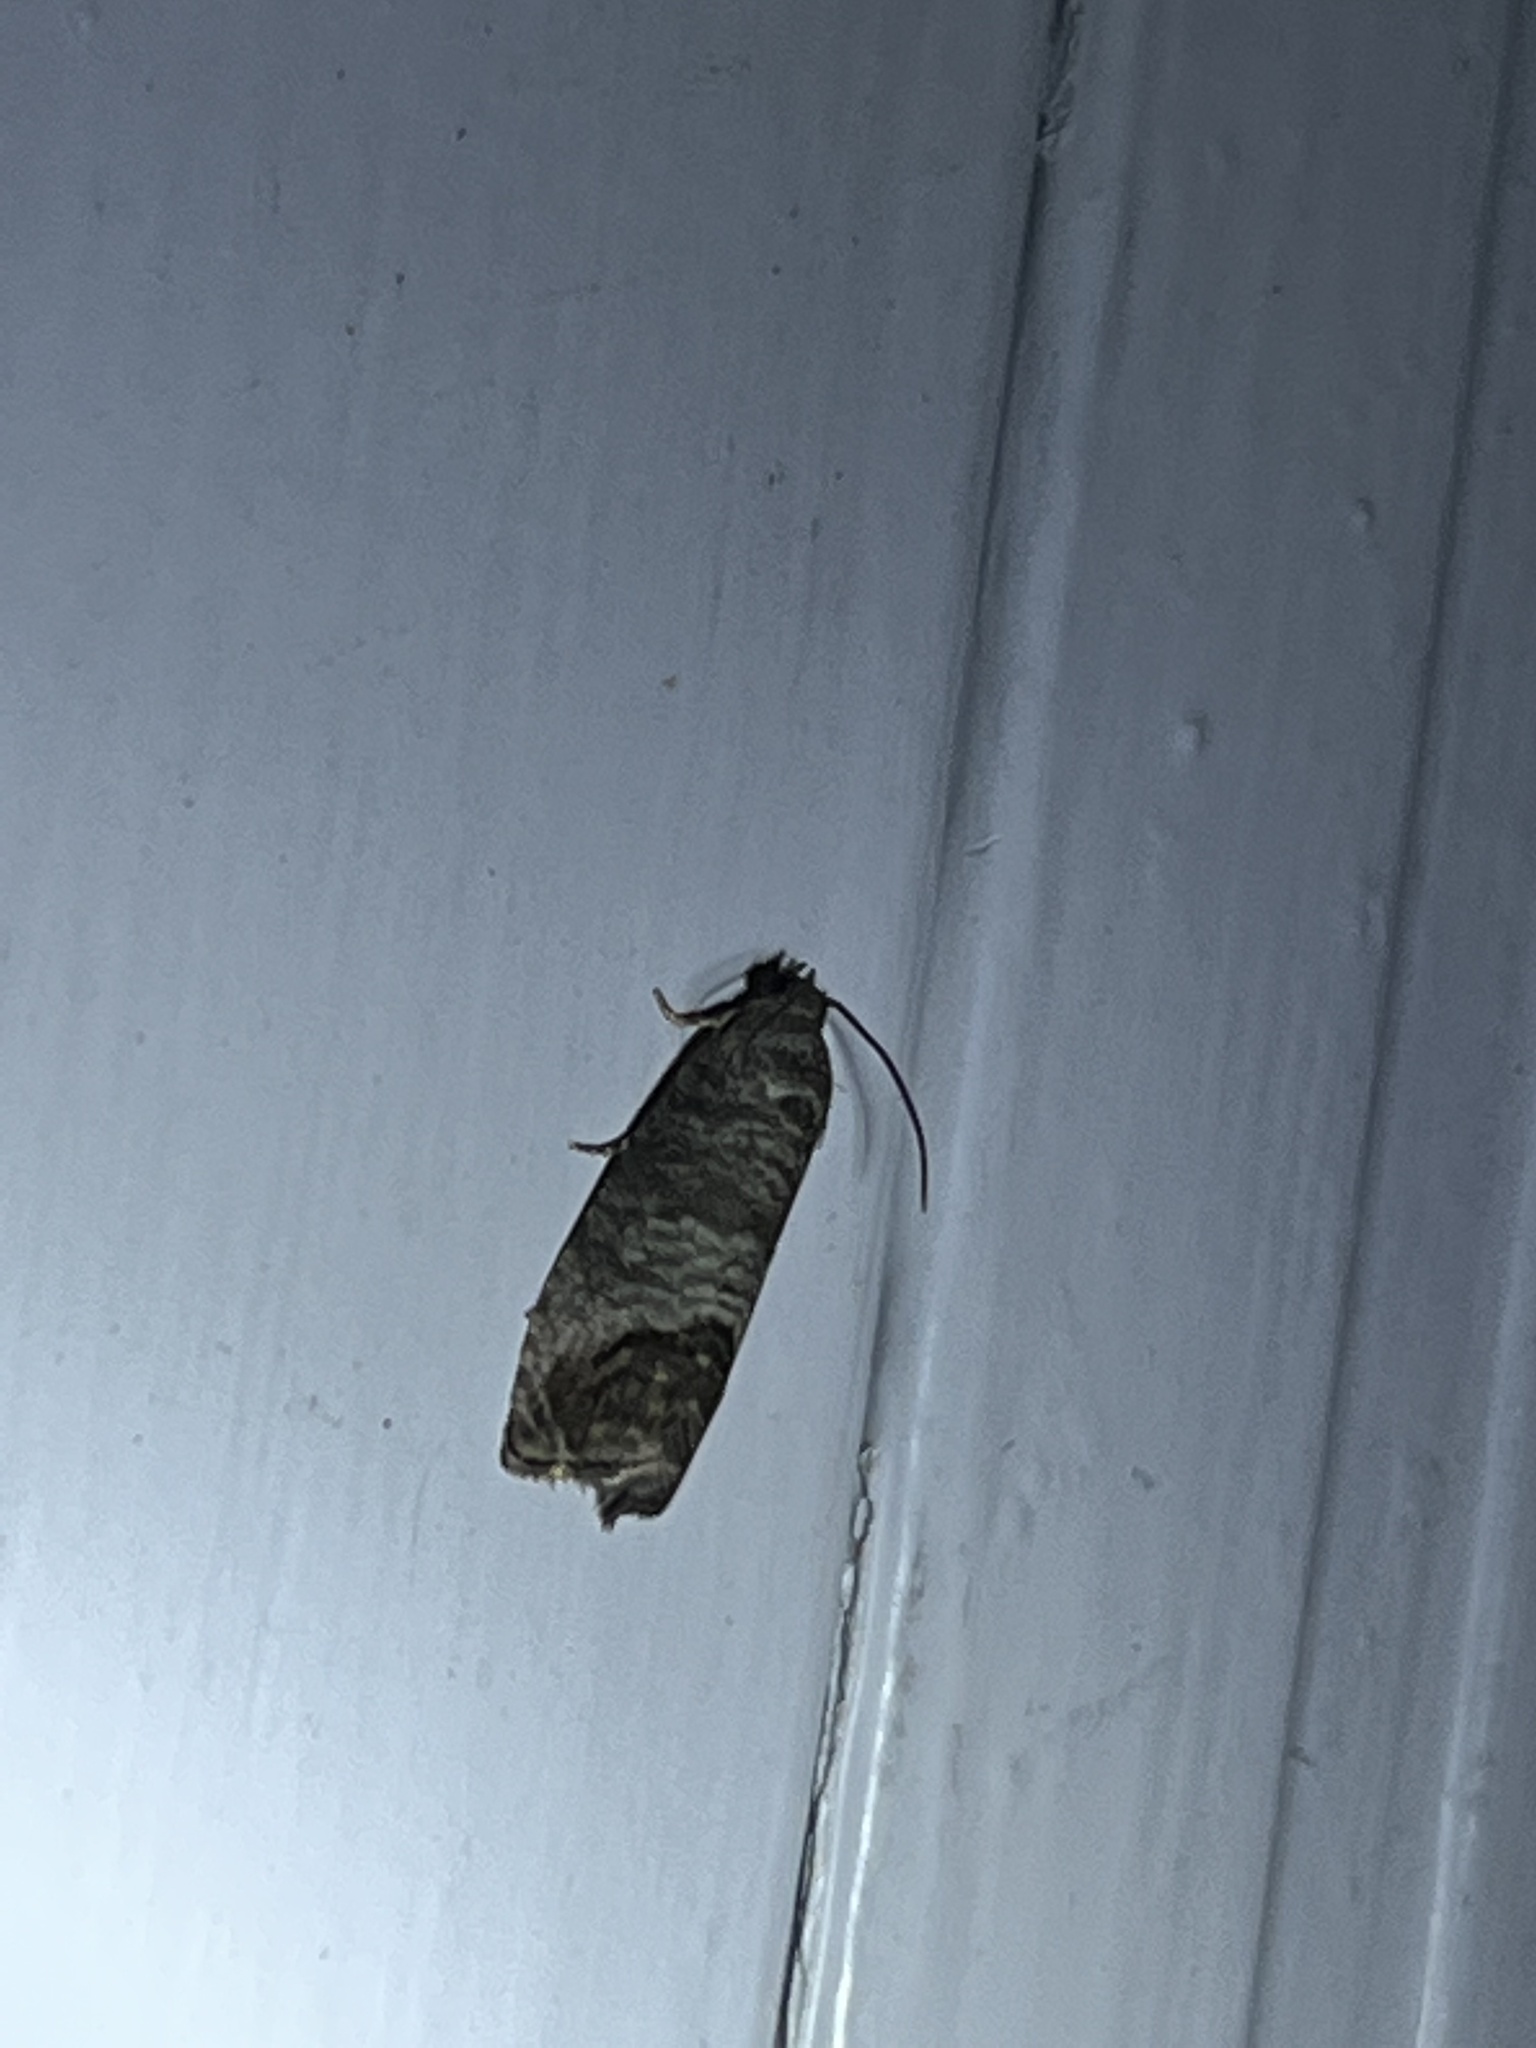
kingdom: Animalia
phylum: Arthropoda
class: Insecta
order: Lepidoptera
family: Tortricidae
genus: Cydia
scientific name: Cydia pomonella
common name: Codling moth
